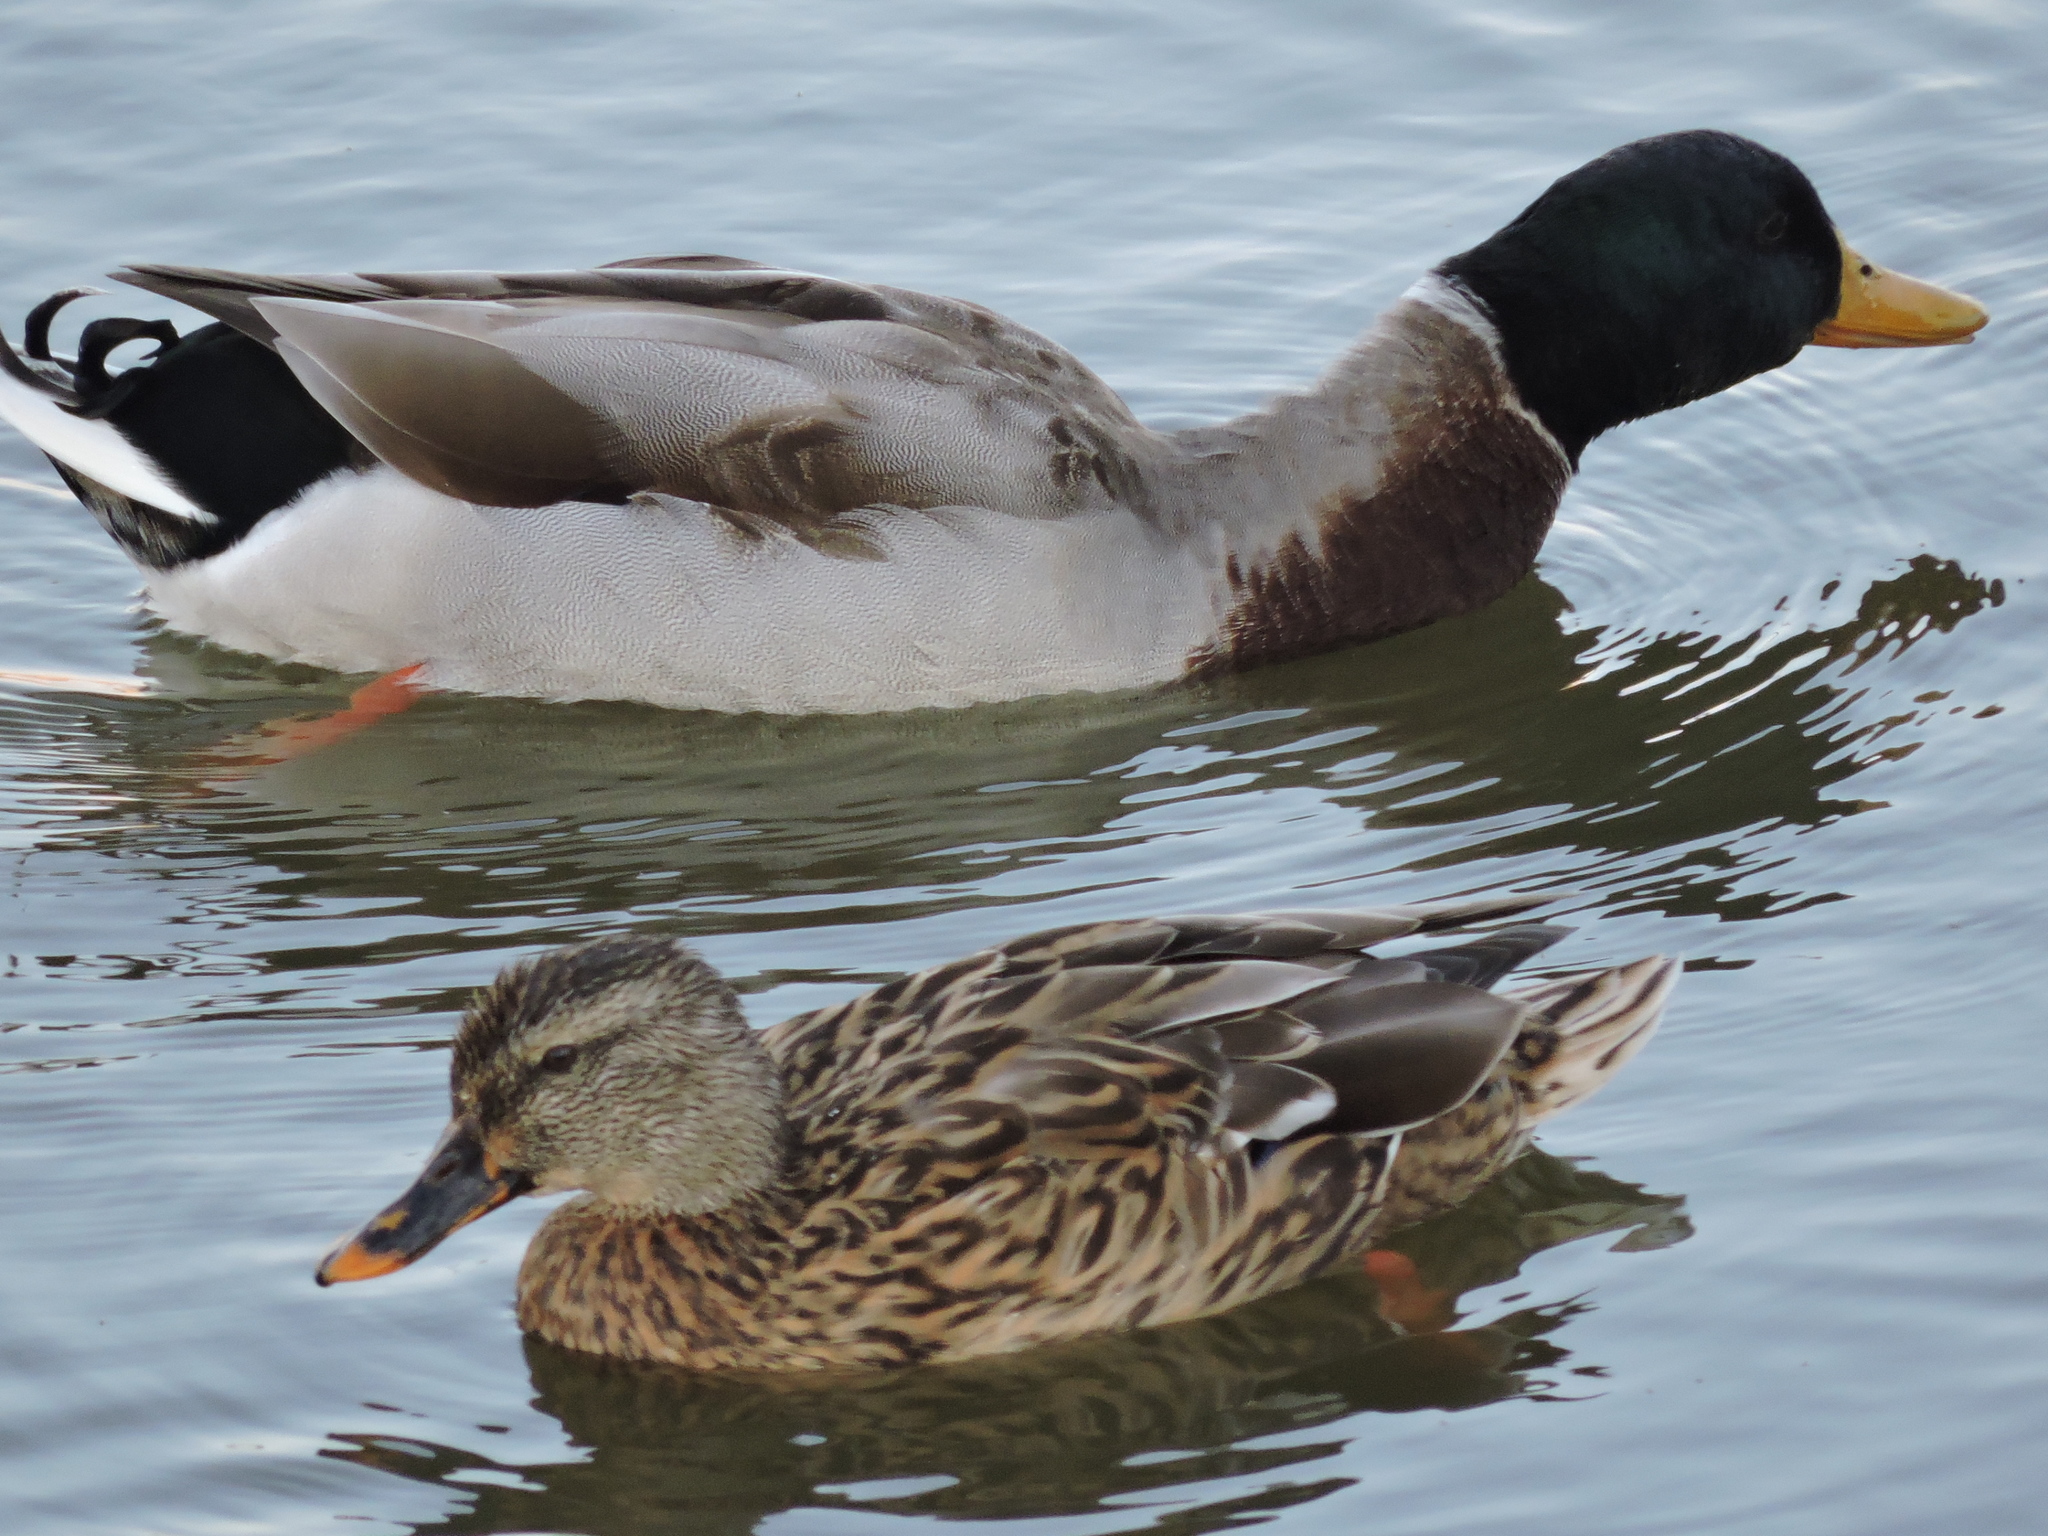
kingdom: Animalia
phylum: Chordata
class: Aves
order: Anseriformes
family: Anatidae
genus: Anas
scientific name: Anas platyrhynchos
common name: Mallard
